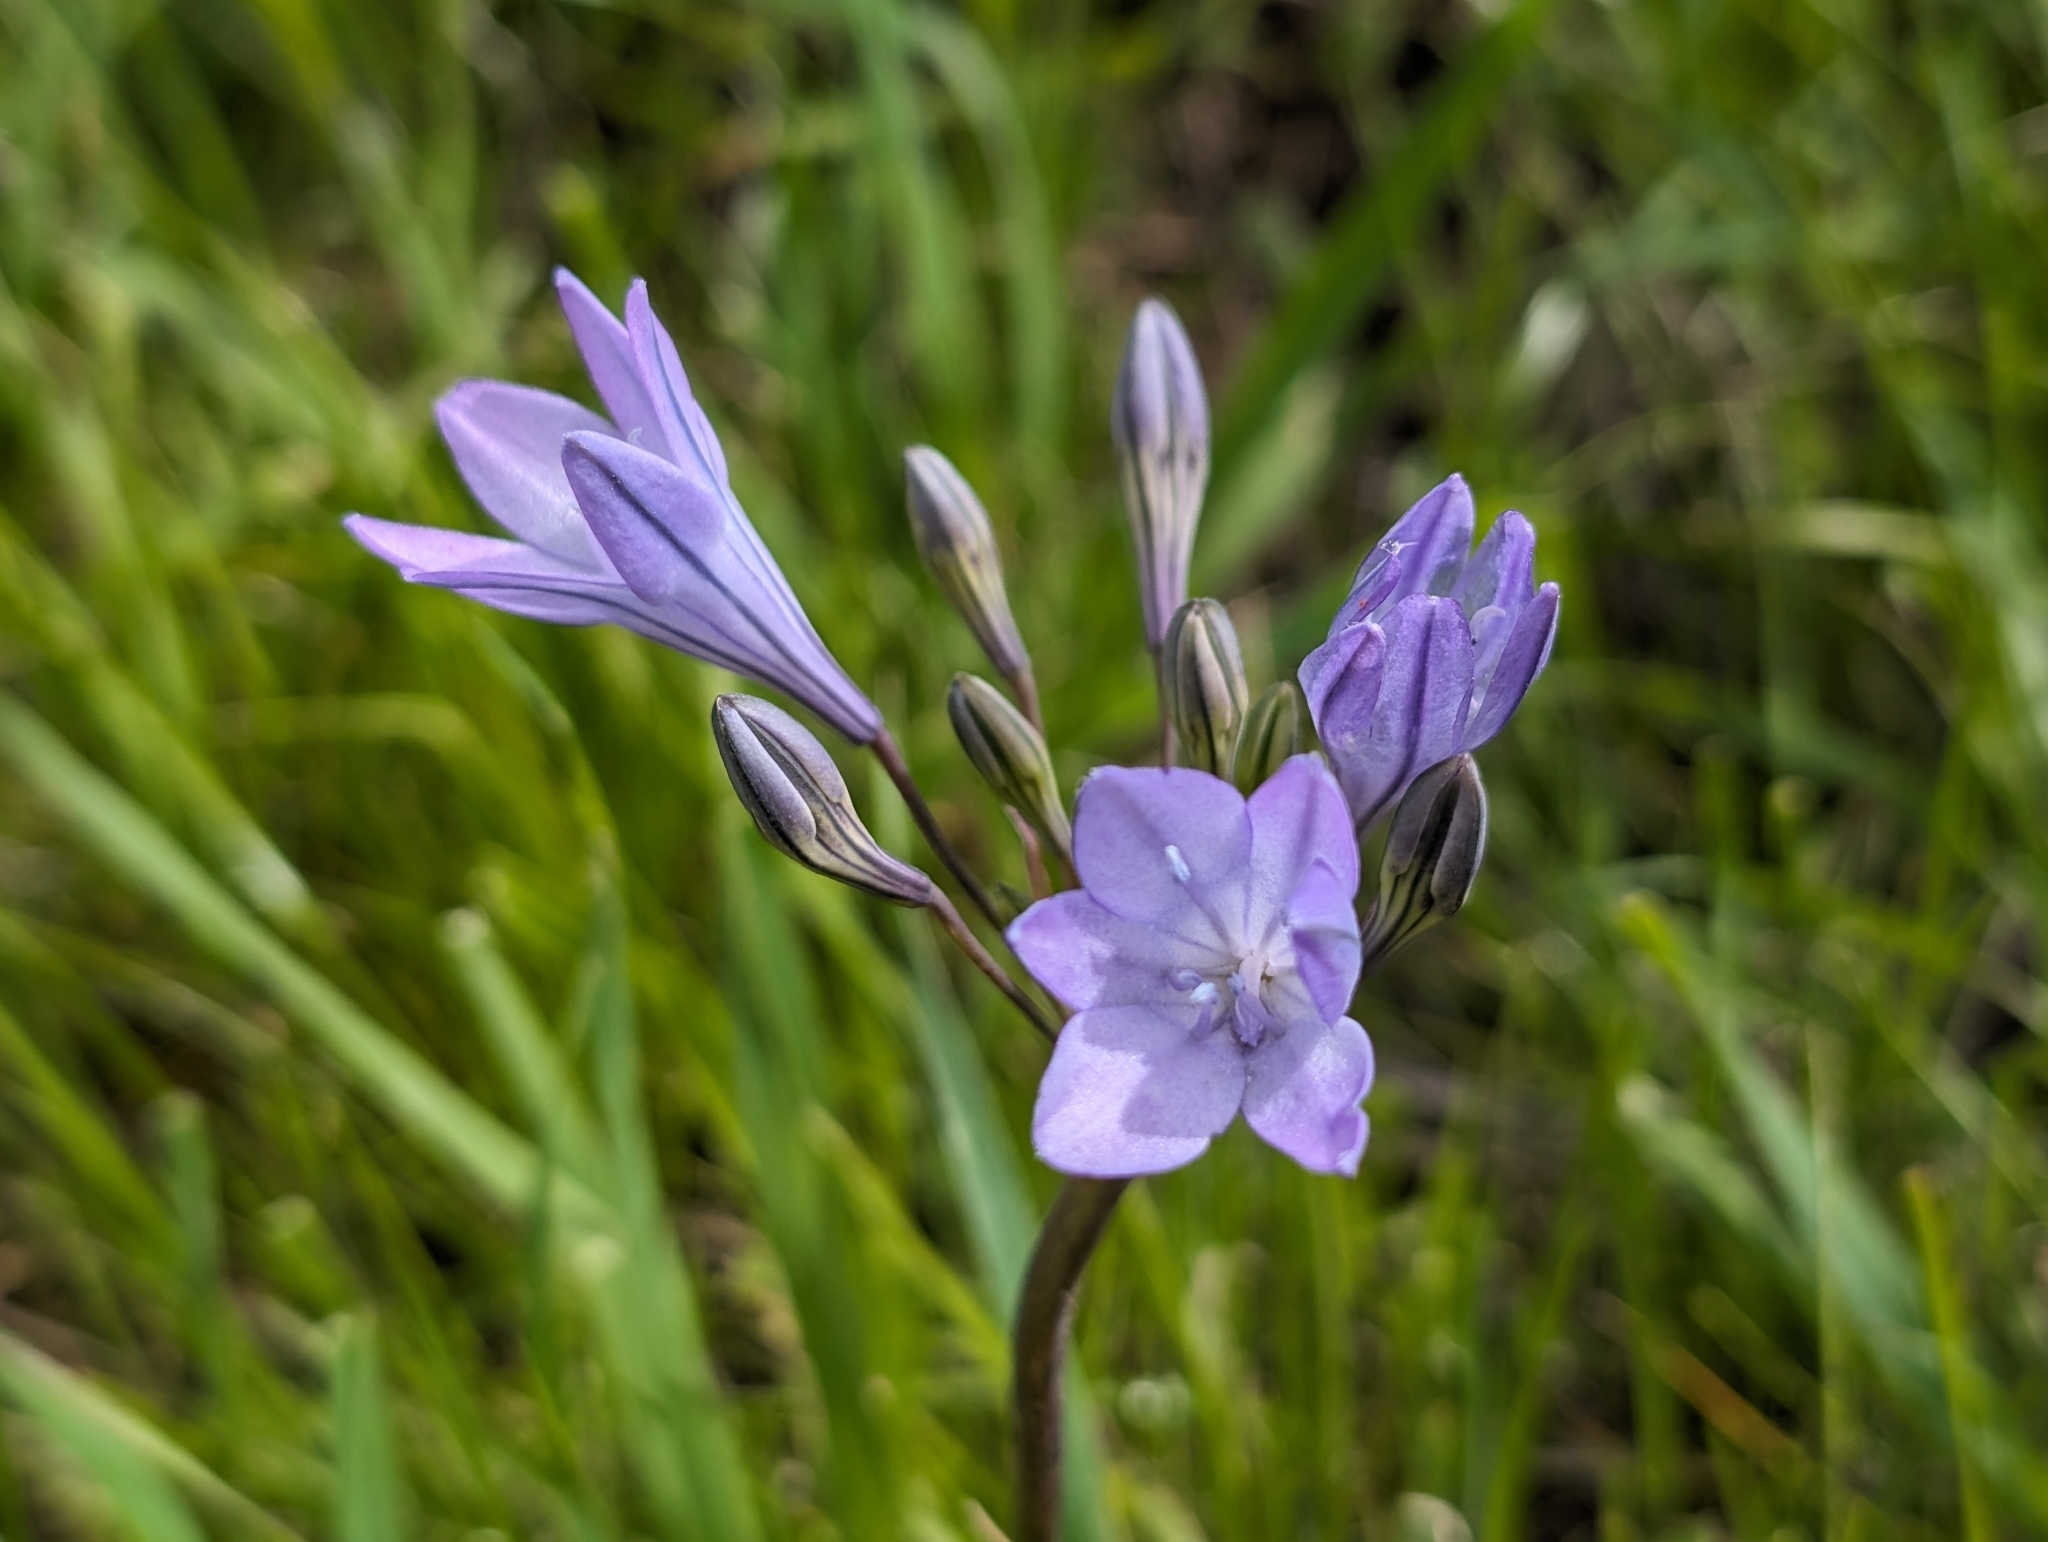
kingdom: Plantae
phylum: Tracheophyta
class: Liliopsida
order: Asparagales
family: Asparagaceae
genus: Triteleia
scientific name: Triteleia laxa
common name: Triplet-lily
